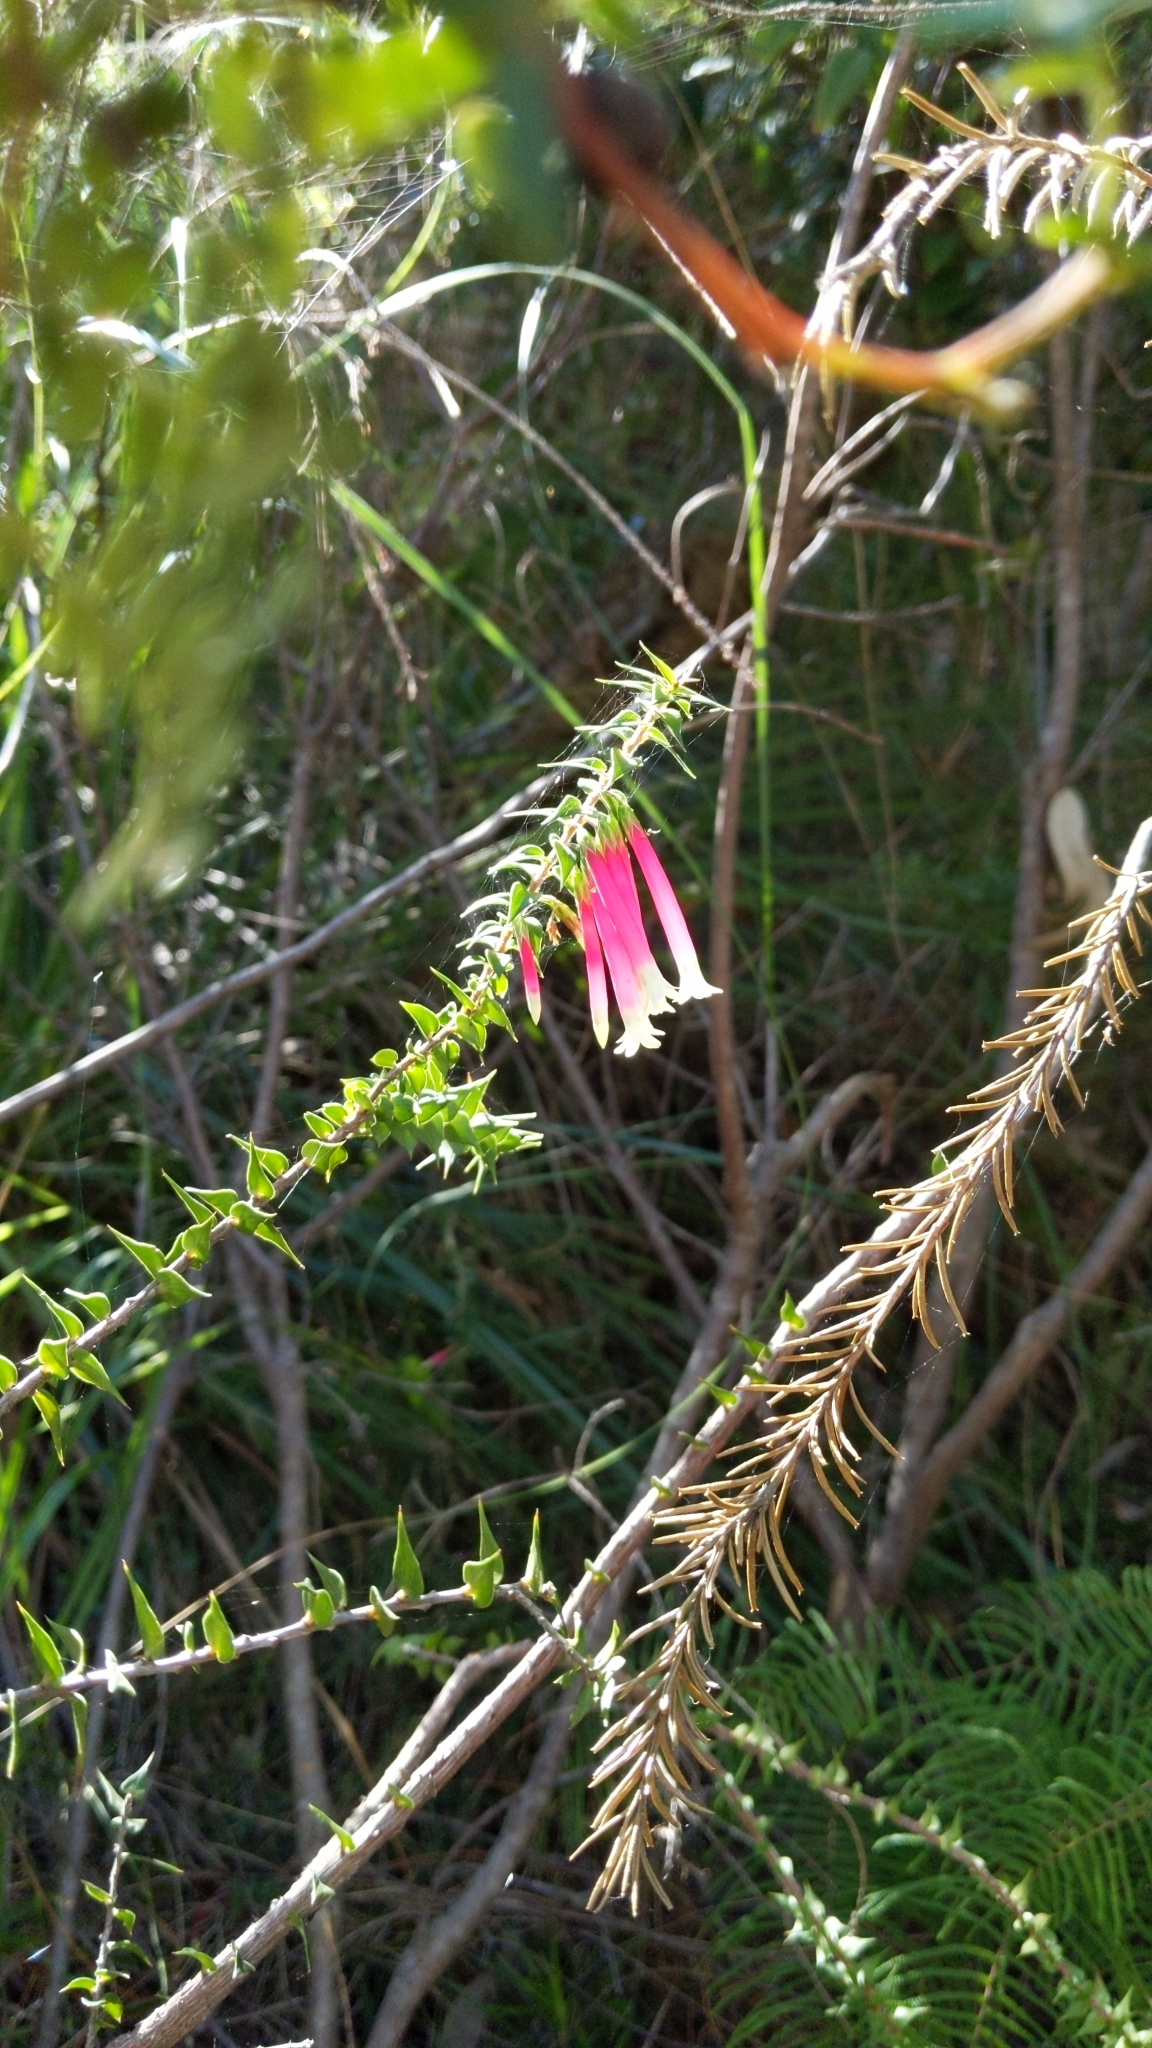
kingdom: Plantae
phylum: Tracheophyta
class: Magnoliopsida
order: Ericales
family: Ericaceae
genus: Epacris
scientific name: Epacris longiflora
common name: Fuchsia-heath
